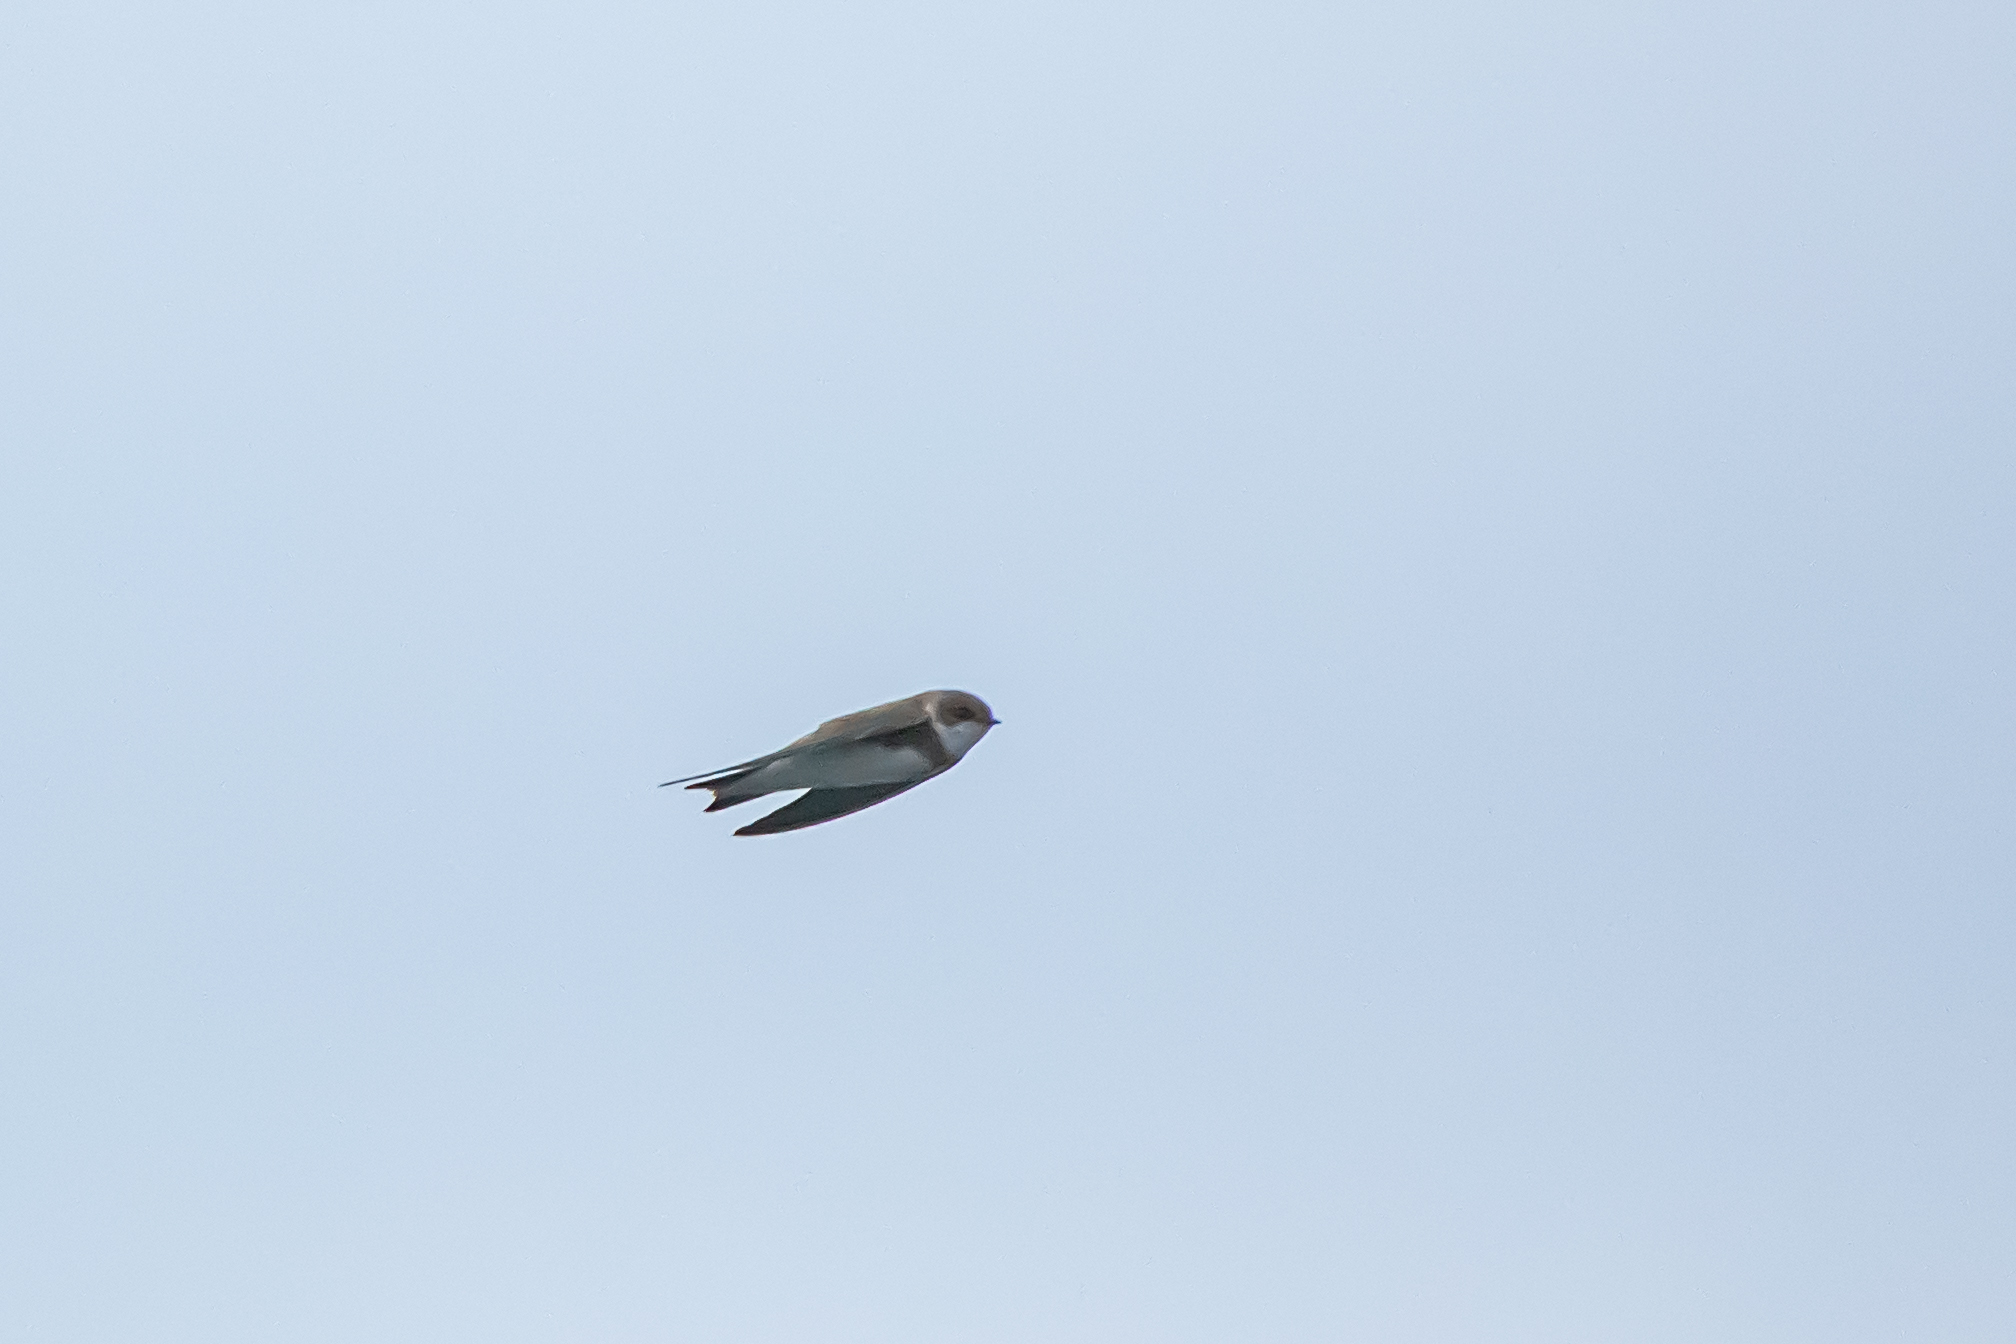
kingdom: Animalia
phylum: Chordata
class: Aves
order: Passeriformes
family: Hirundinidae
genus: Riparia
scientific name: Riparia riparia
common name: Sand martin
